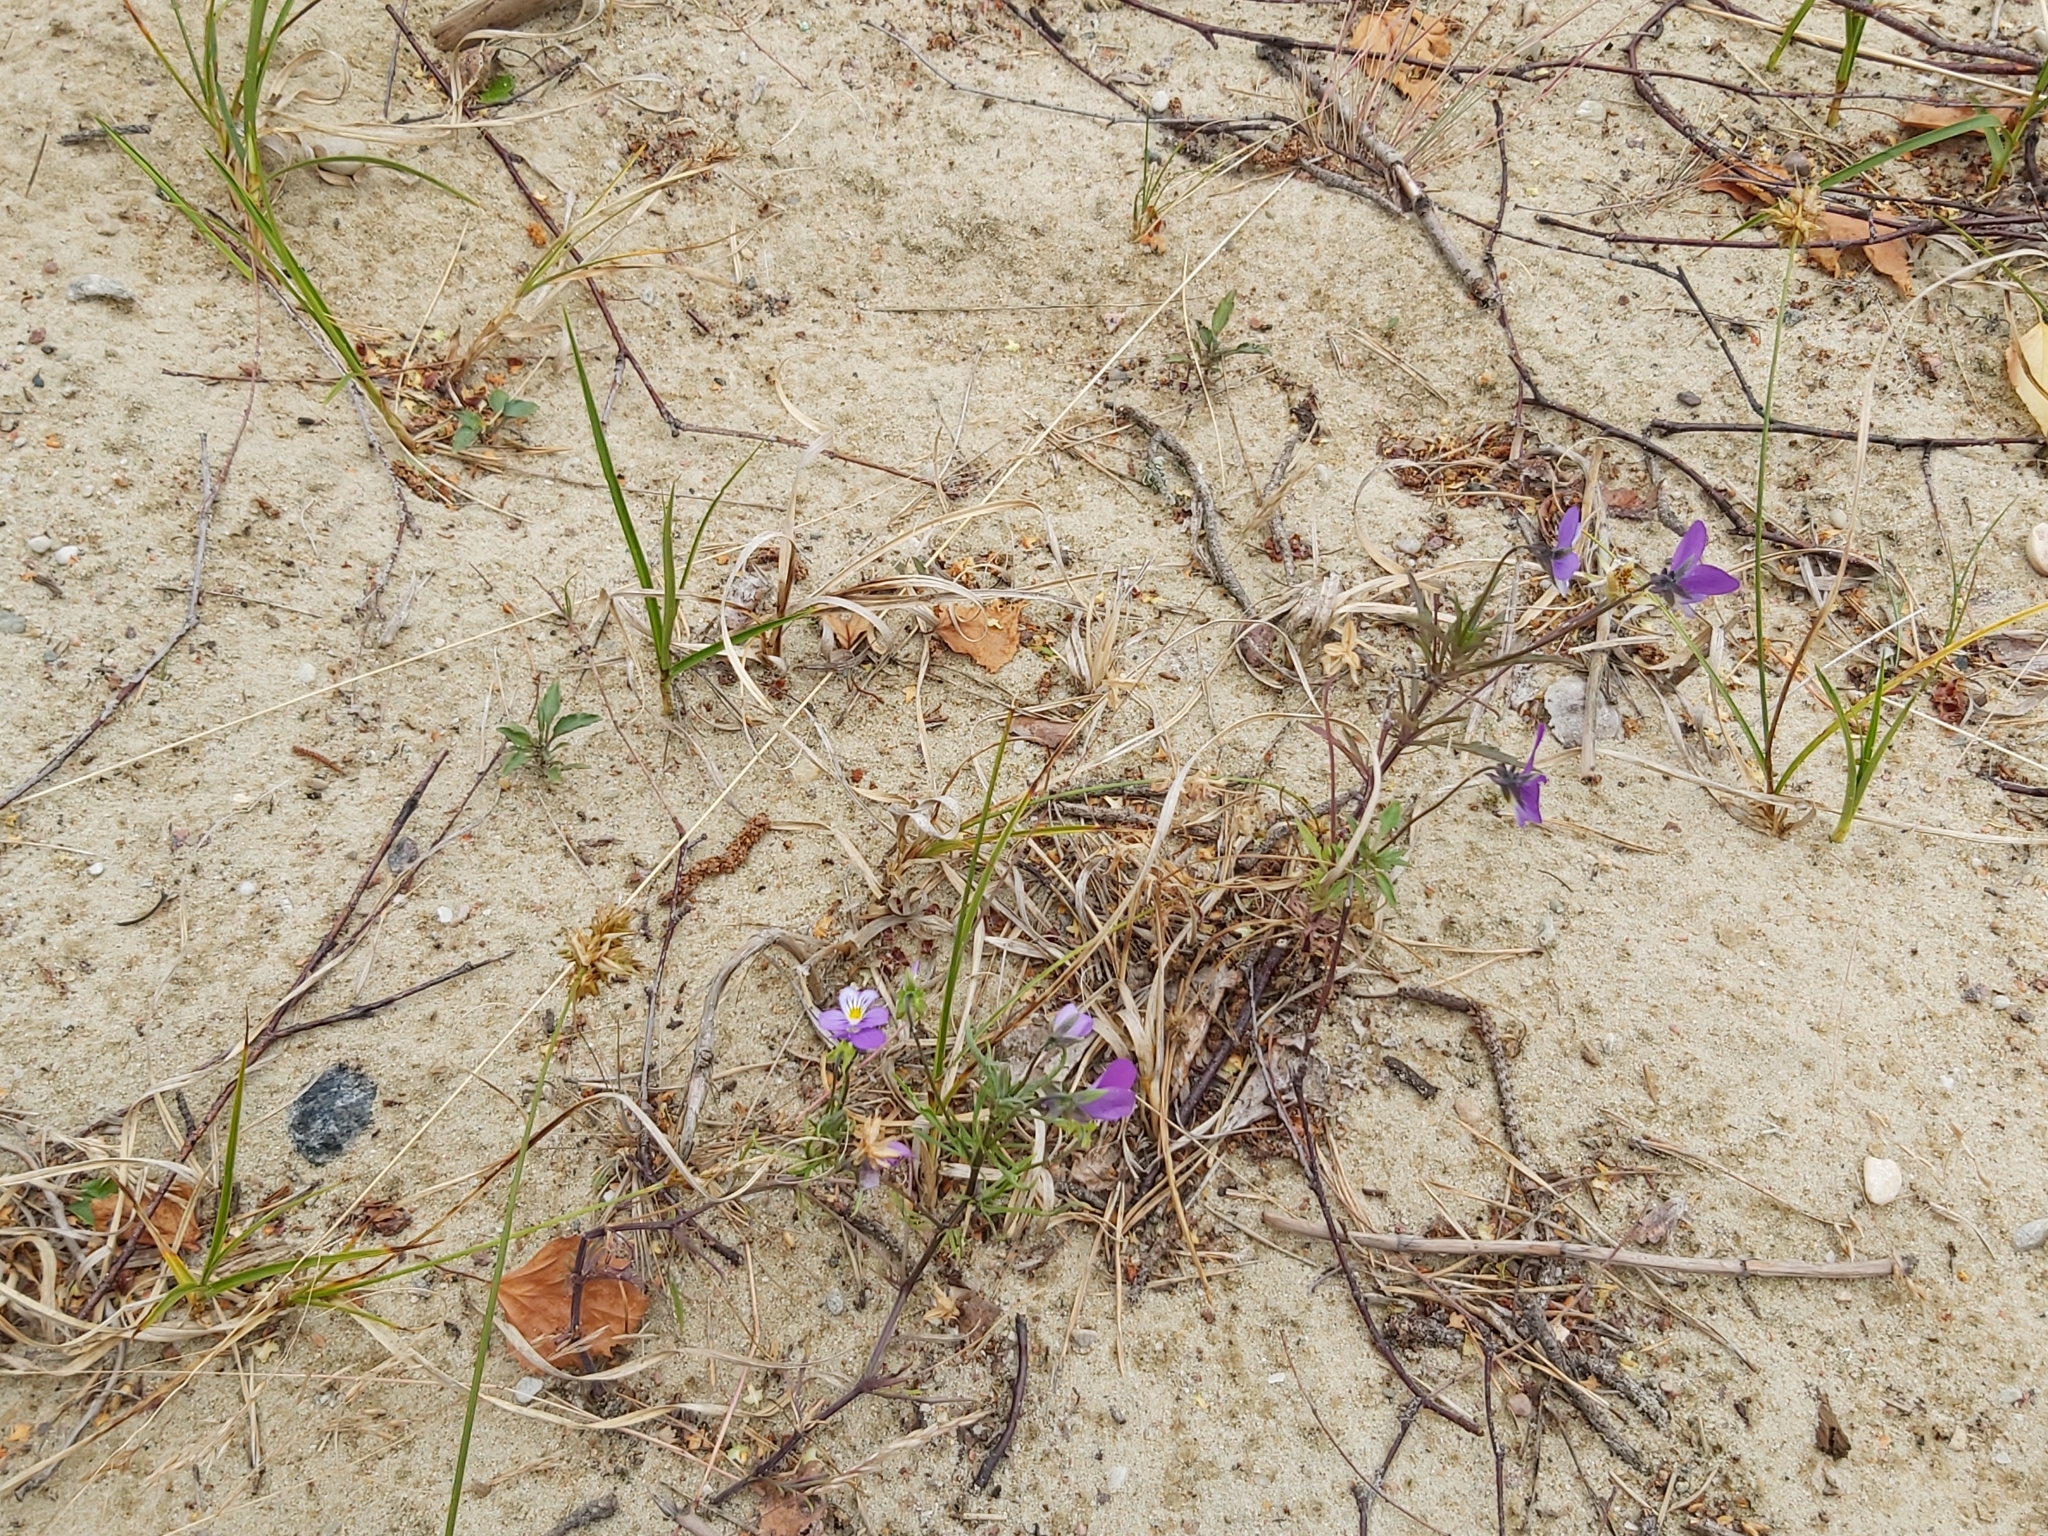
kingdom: Plantae
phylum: Tracheophyta
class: Magnoliopsida
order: Malpighiales
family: Violaceae
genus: Viola
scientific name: Viola tricolor
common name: Pansy
